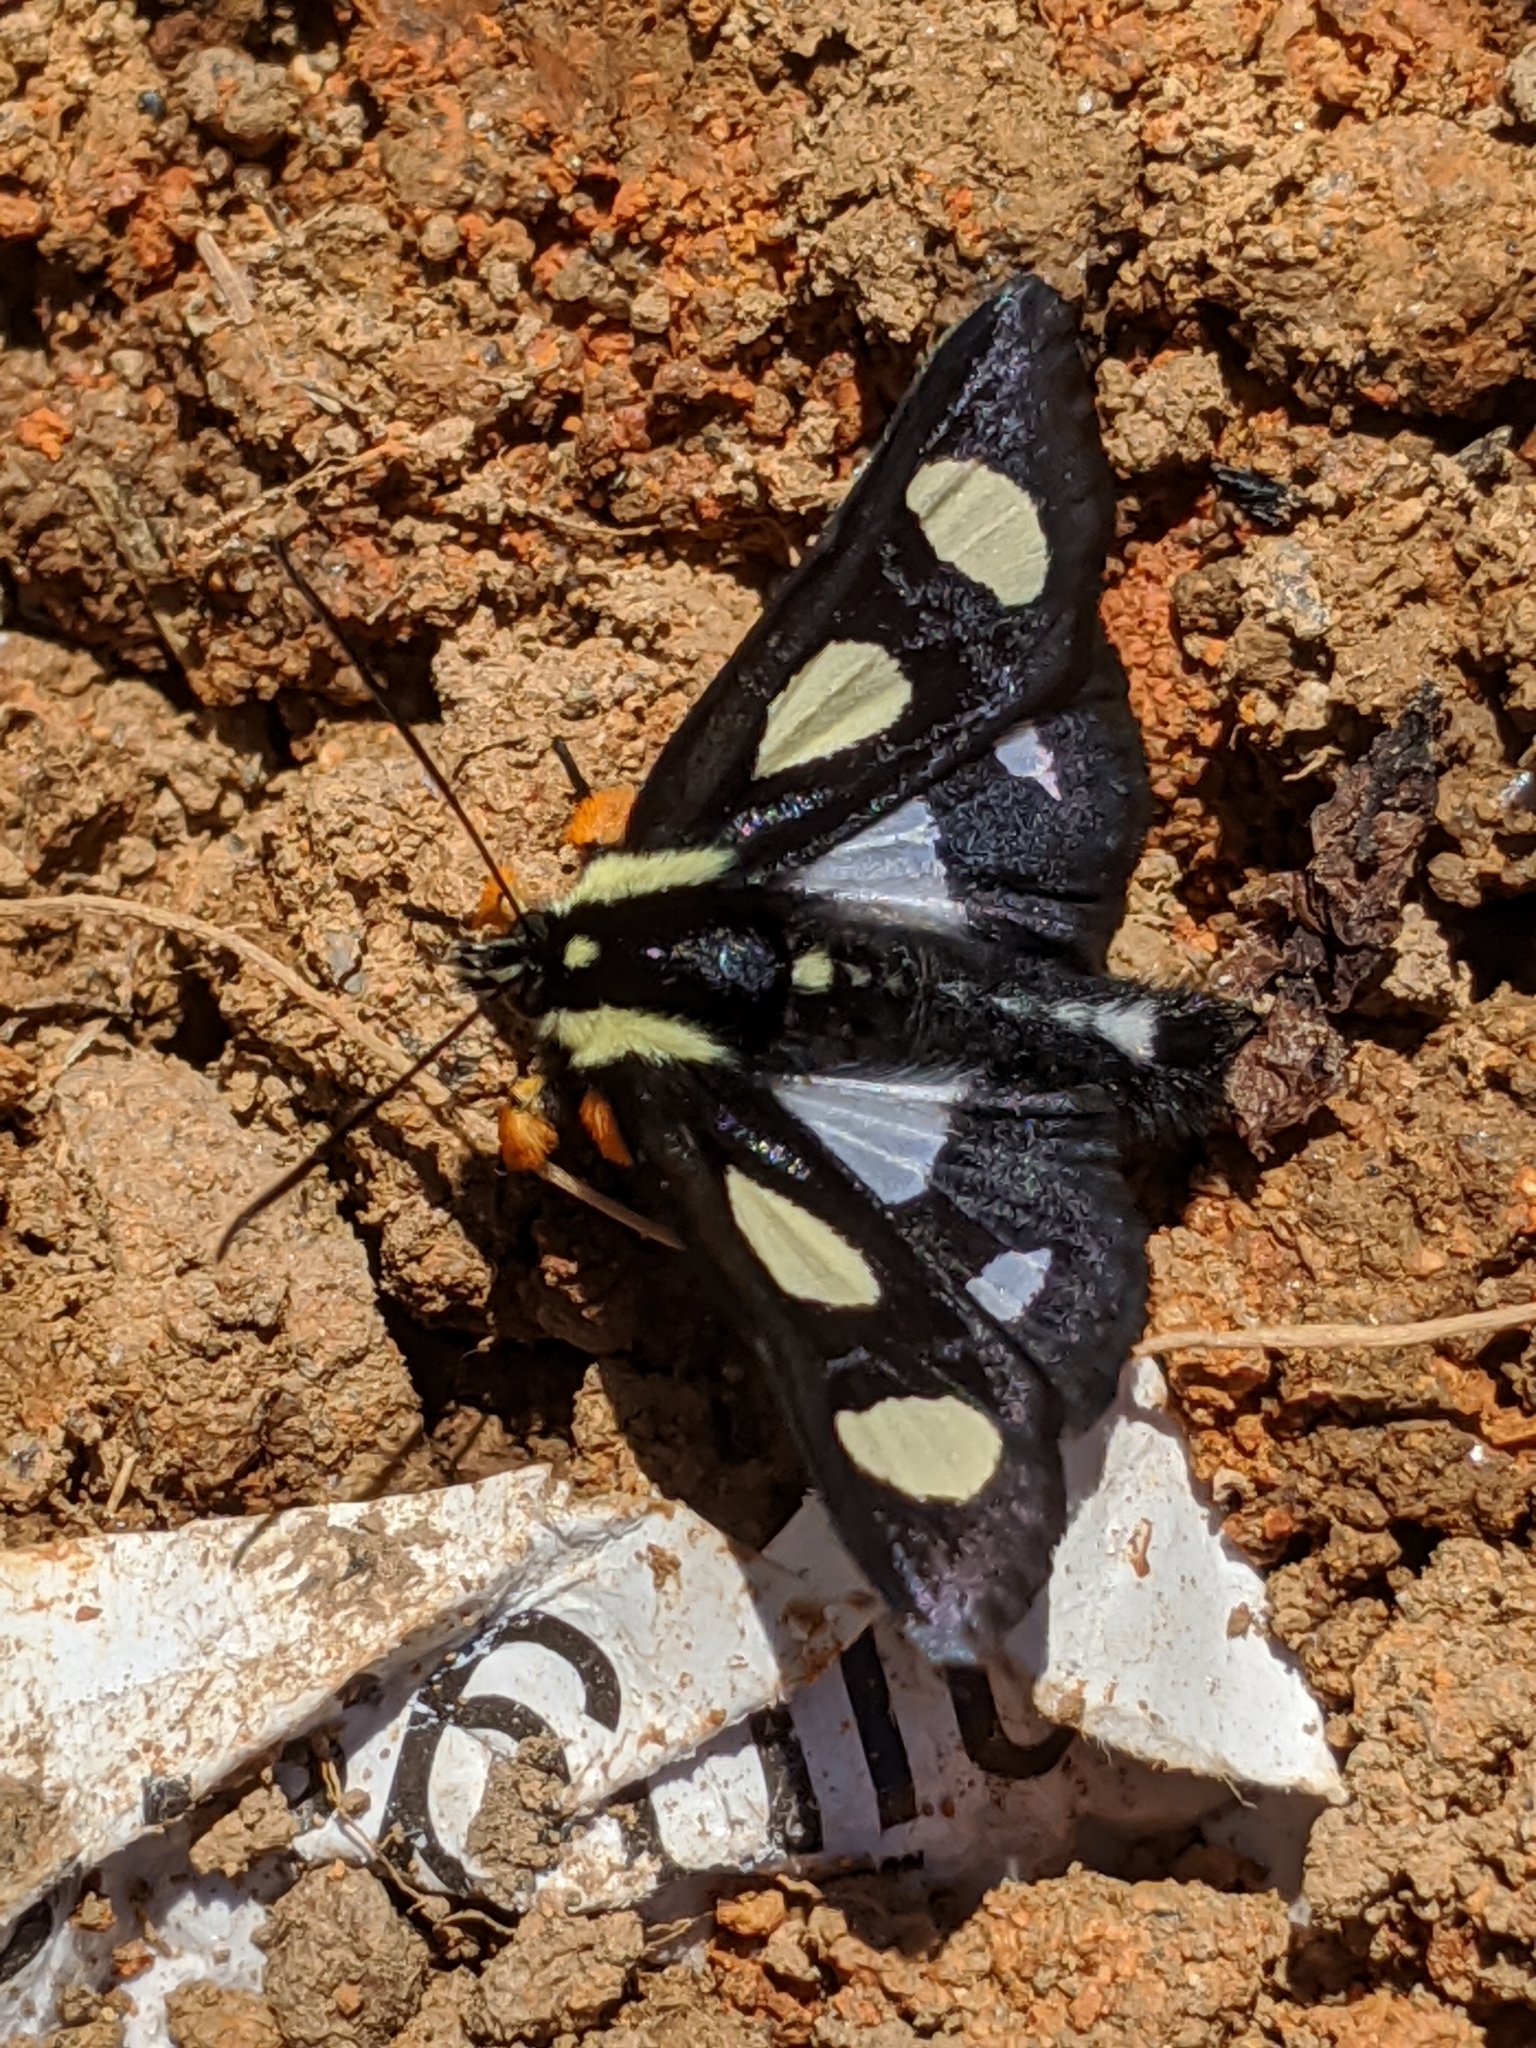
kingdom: Animalia
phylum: Arthropoda
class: Insecta
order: Lepidoptera
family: Noctuidae
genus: Alypia
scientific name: Alypia octomaculata
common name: Eight-spotted forester
